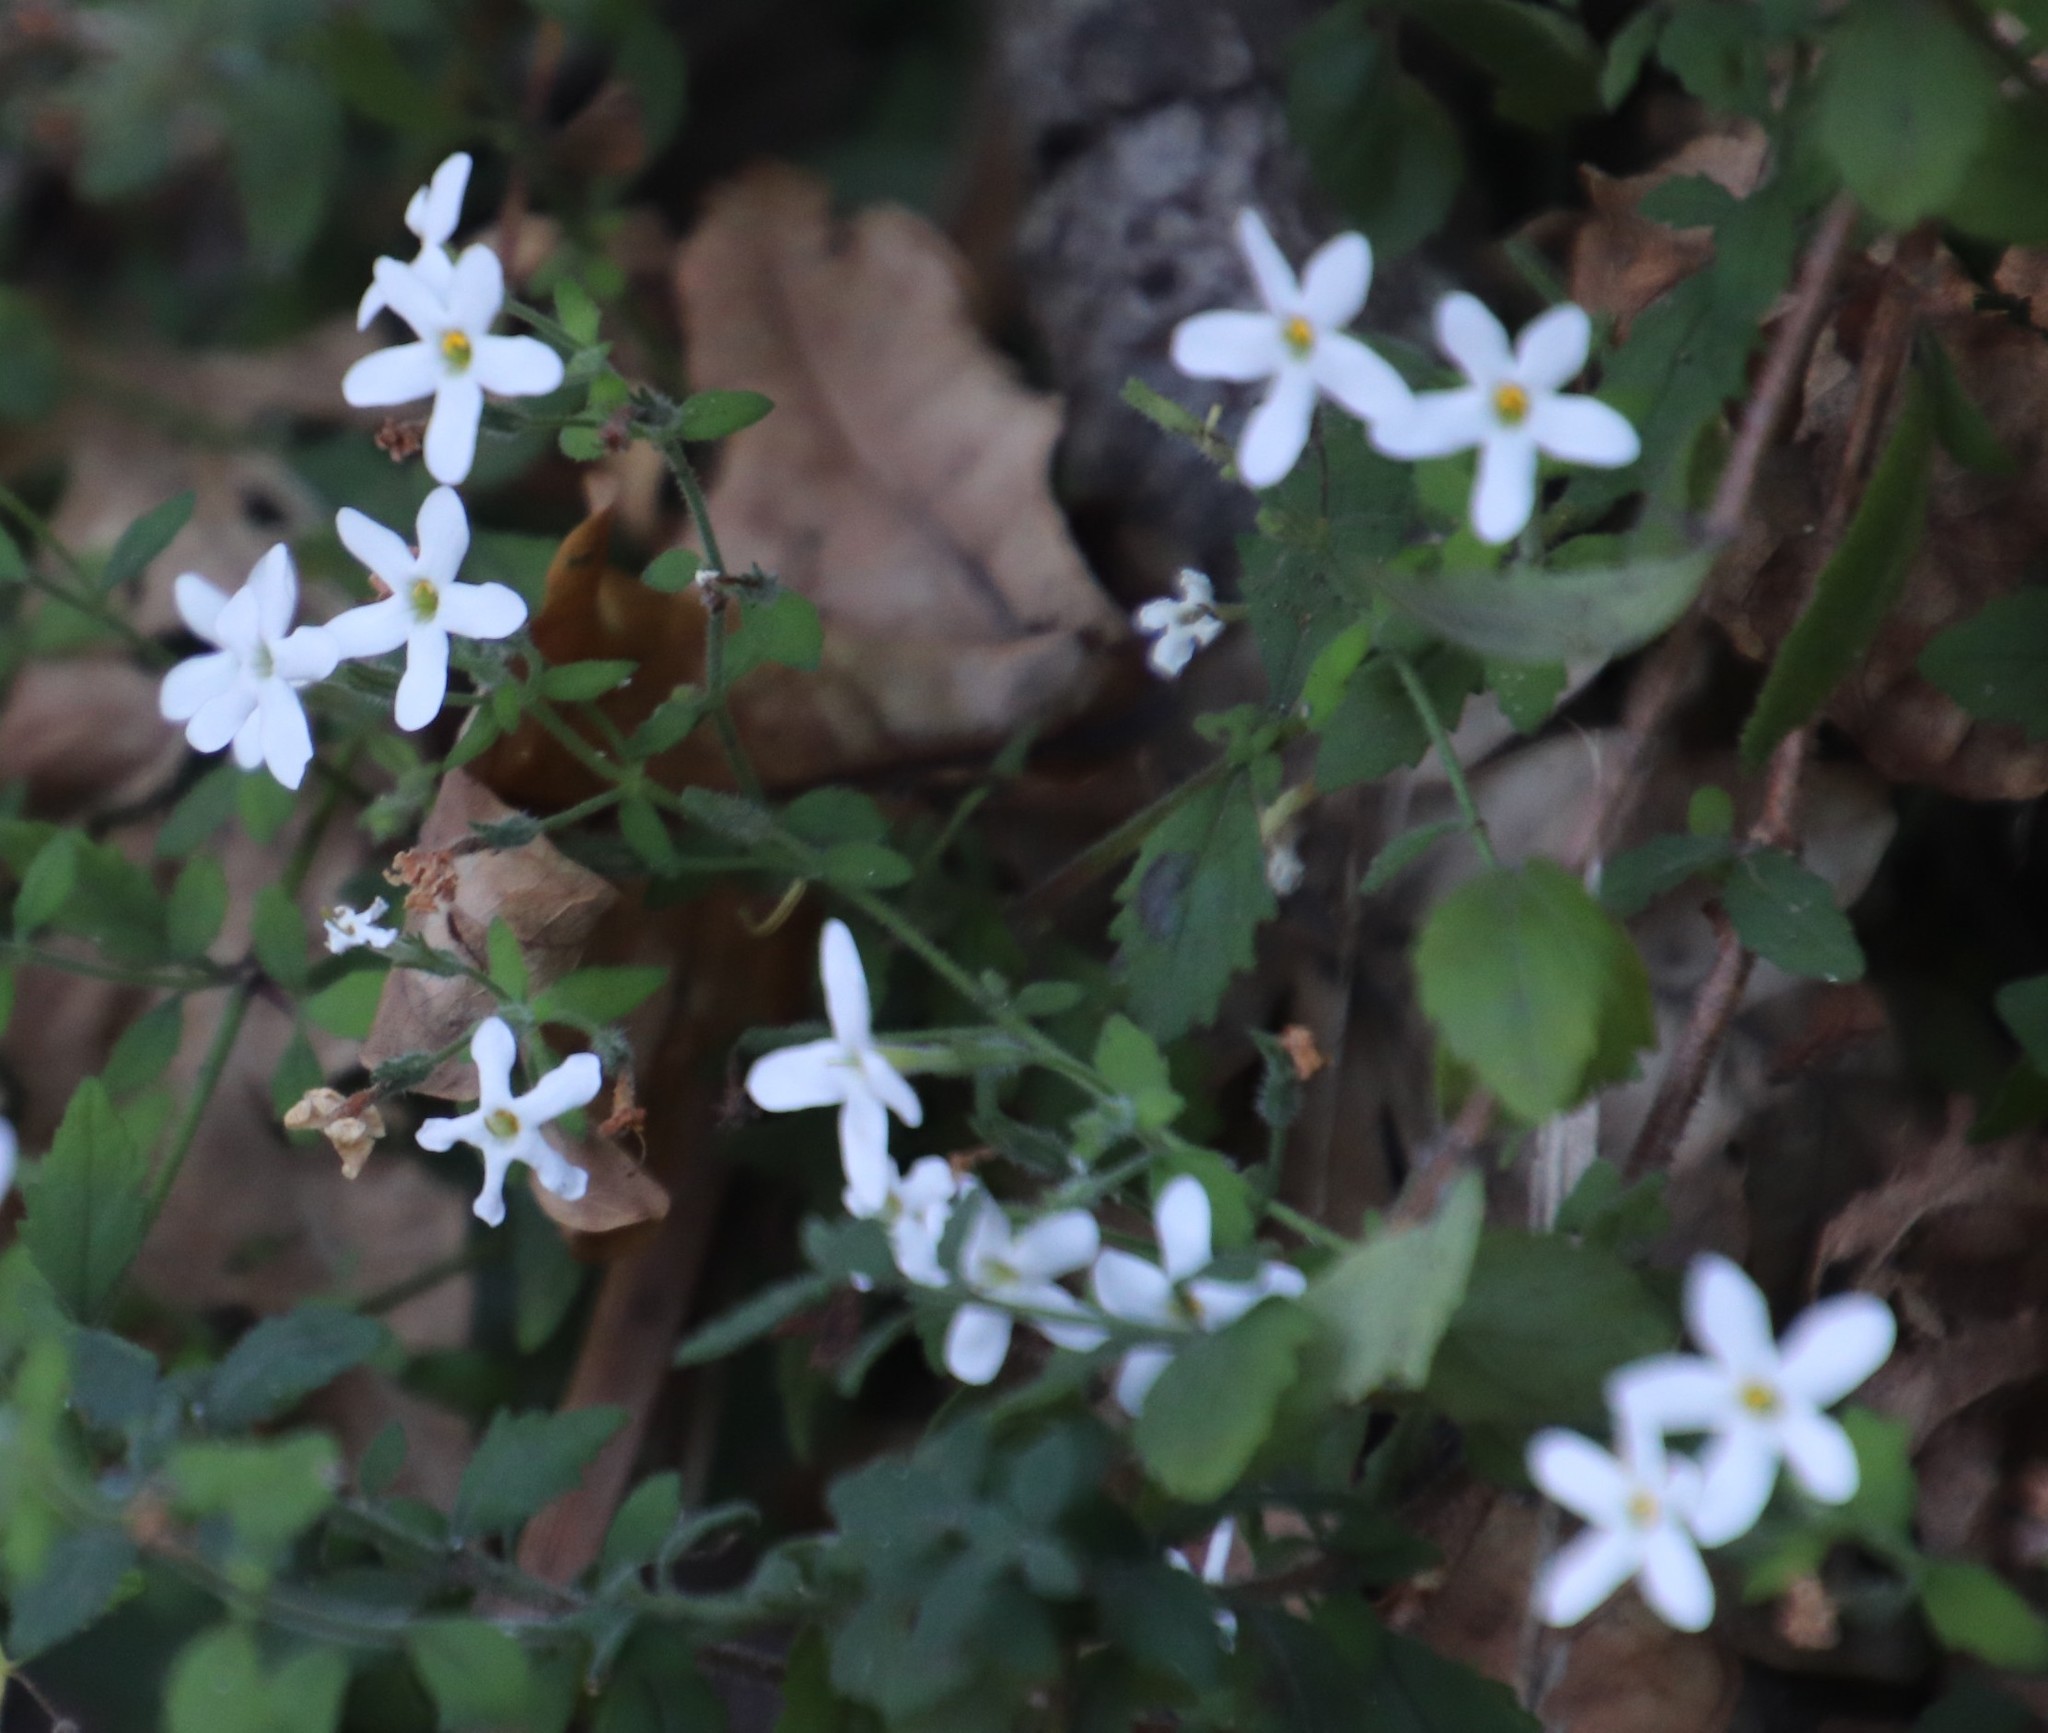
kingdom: Plantae
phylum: Tracheophyta
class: Magnoliopsida
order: Lamiales
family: Scrophulariaceae
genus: Chaenostoma
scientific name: Chaenostoma hispidum
